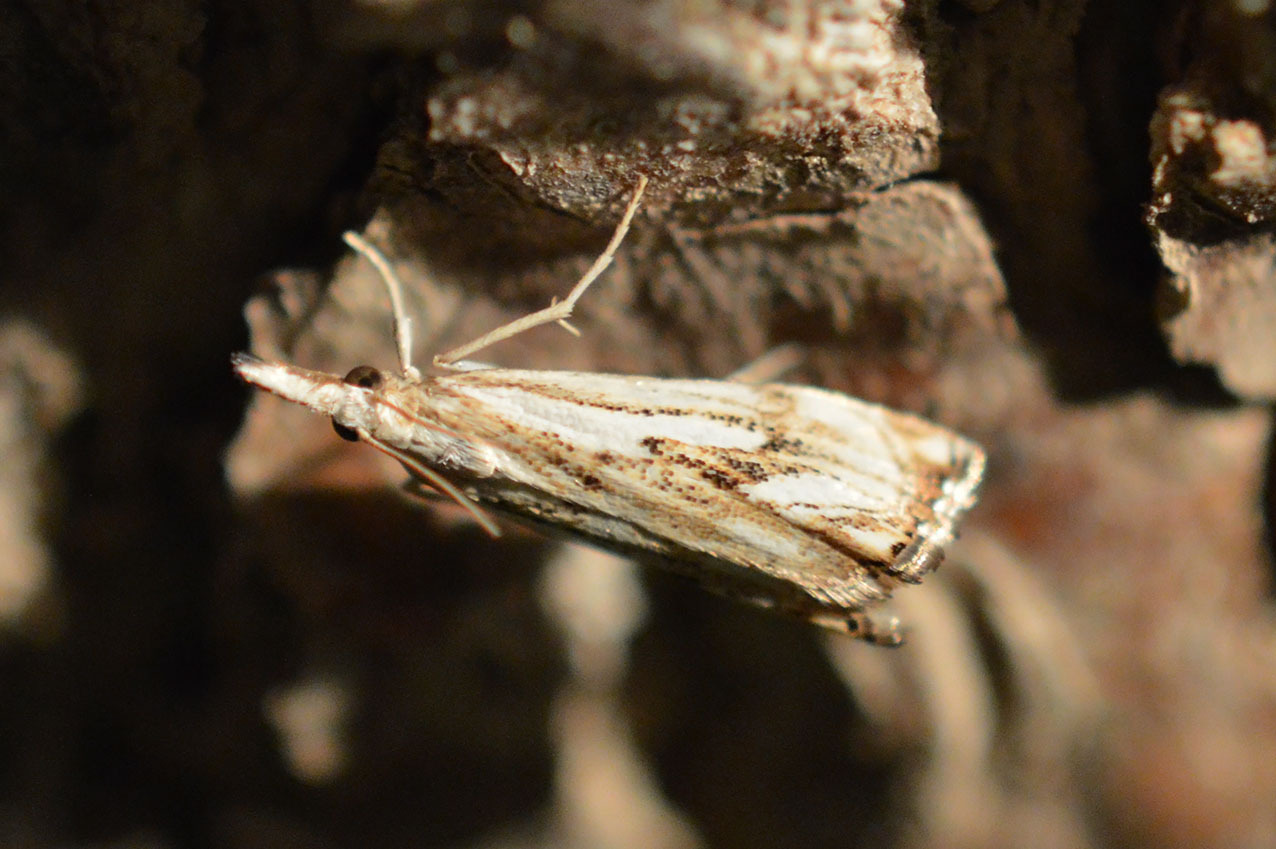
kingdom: Animalia
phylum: Arthropoda
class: Insecta
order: Lepidoptera
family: Crambidae
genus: Catoptria
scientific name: Catoptria falsella
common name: Chequered grass-veneer
